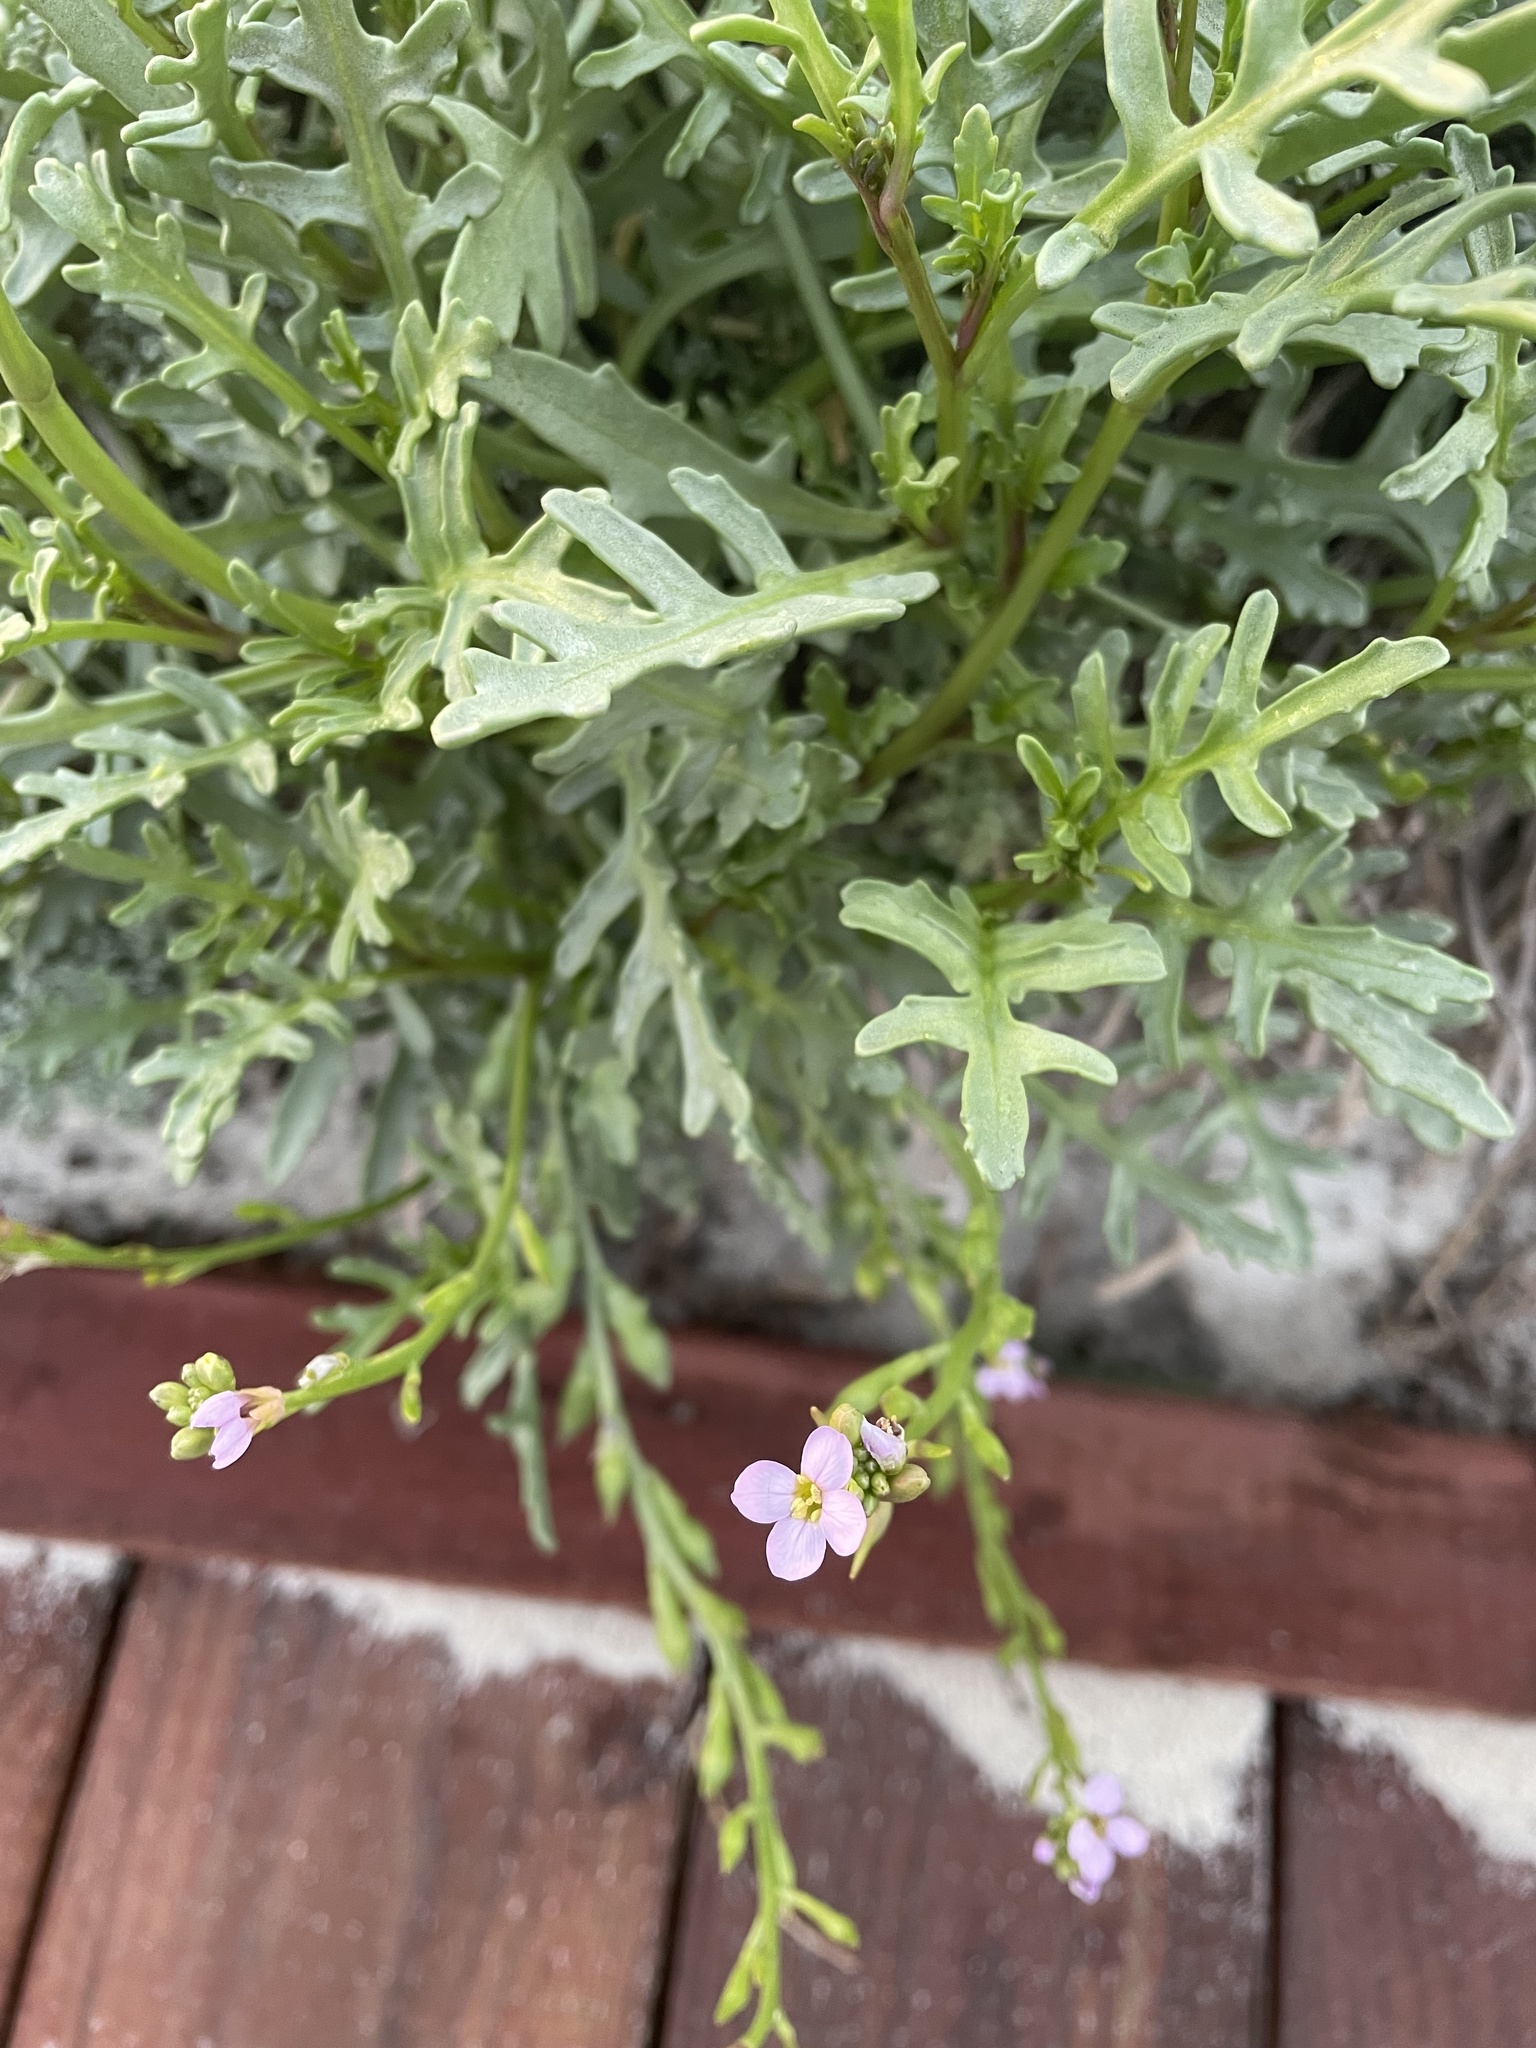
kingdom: Plantae
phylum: Tracheophyta
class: Magnoliopsida
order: Brassicales
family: Brassicaceae
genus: Cakile
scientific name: Cakile maritima
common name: Sea rocket
